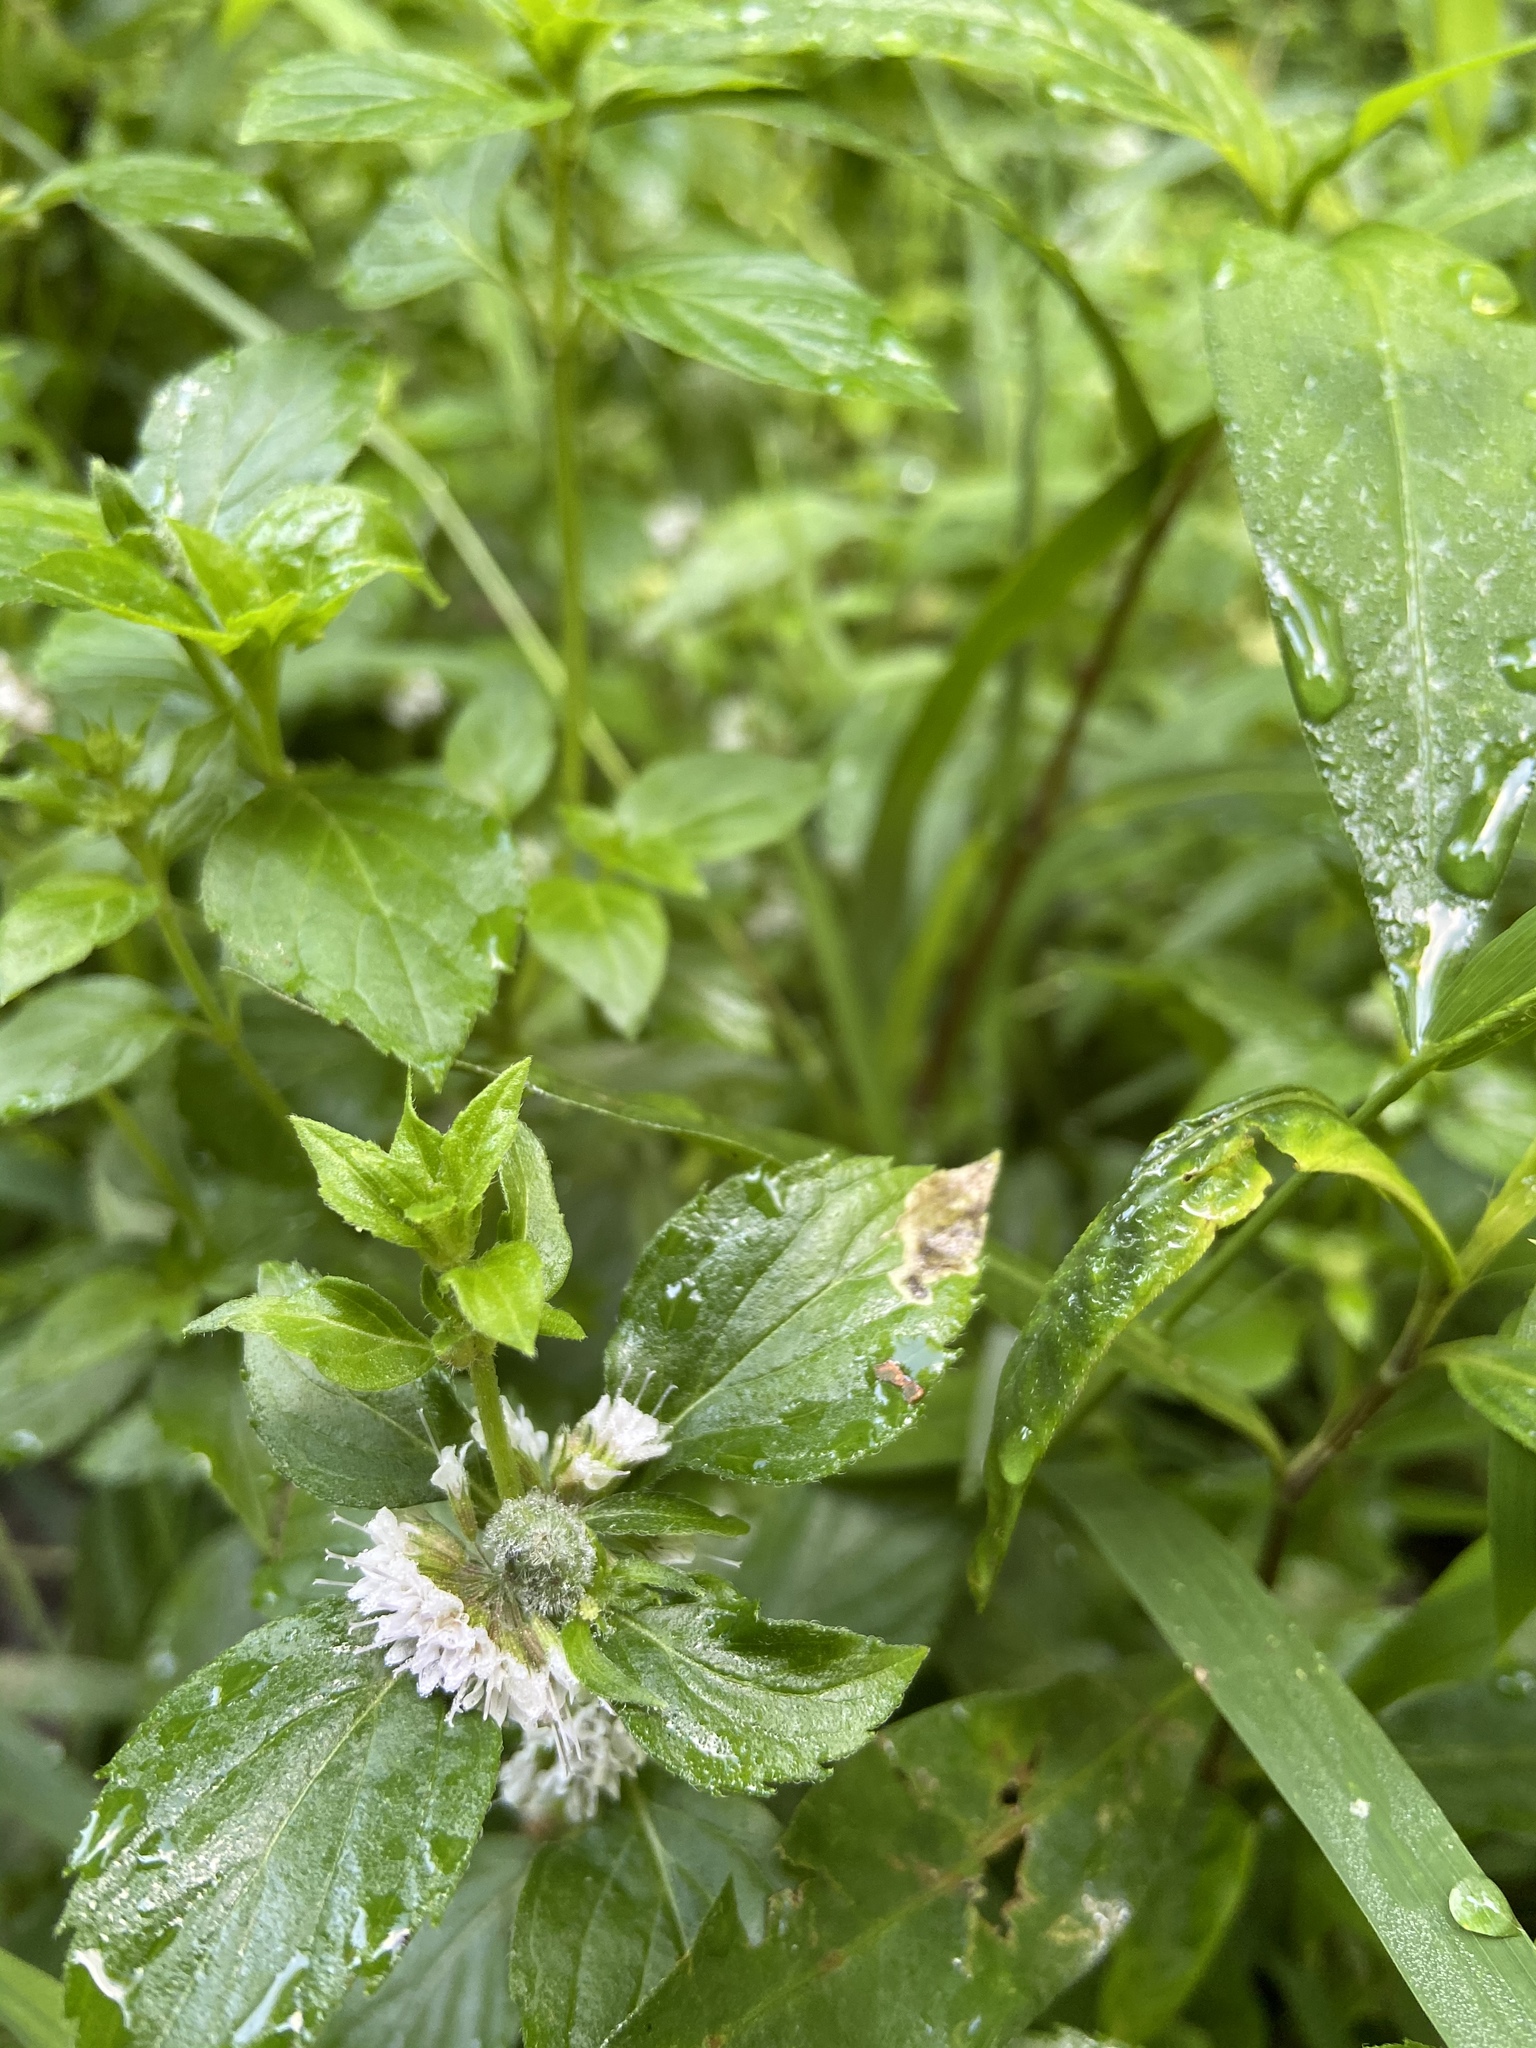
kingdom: Plantae
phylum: Tracheophyta
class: Magnoliopsida
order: Lamiales
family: Lamiaceae
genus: Mentha
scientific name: Mentha arvensis
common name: Corn mint
